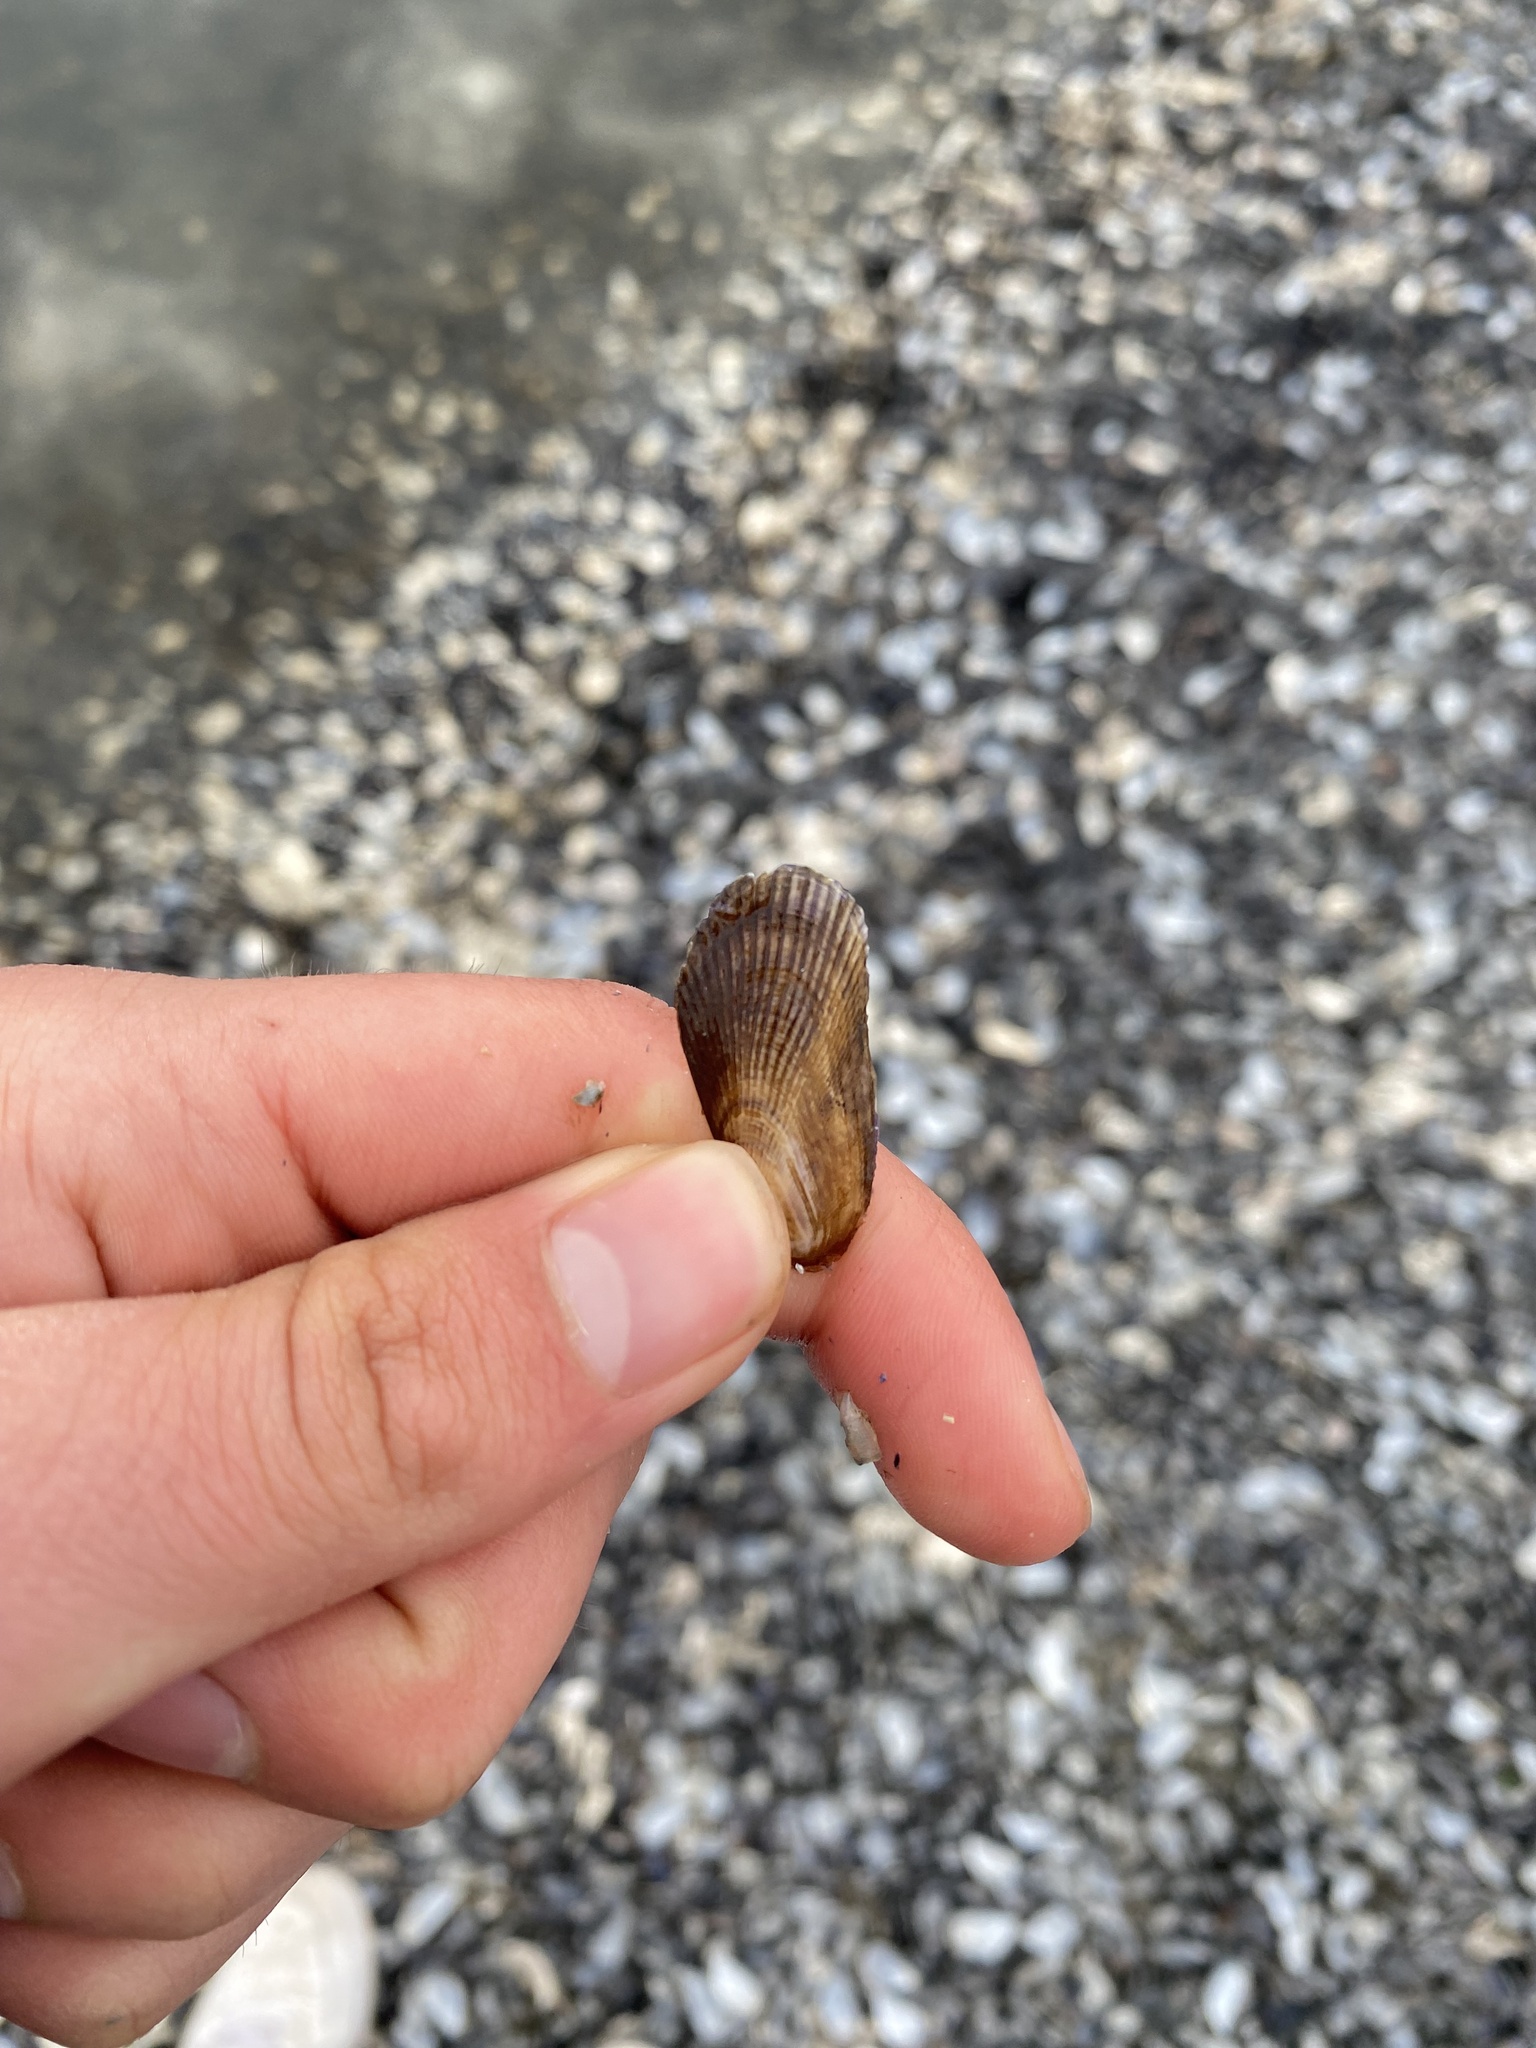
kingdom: Animalia
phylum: Mollusca
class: Bivalvia
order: Mytilida
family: Mytilidae
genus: Geukensia
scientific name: Geukensia demissa
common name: Ribbed mussel
